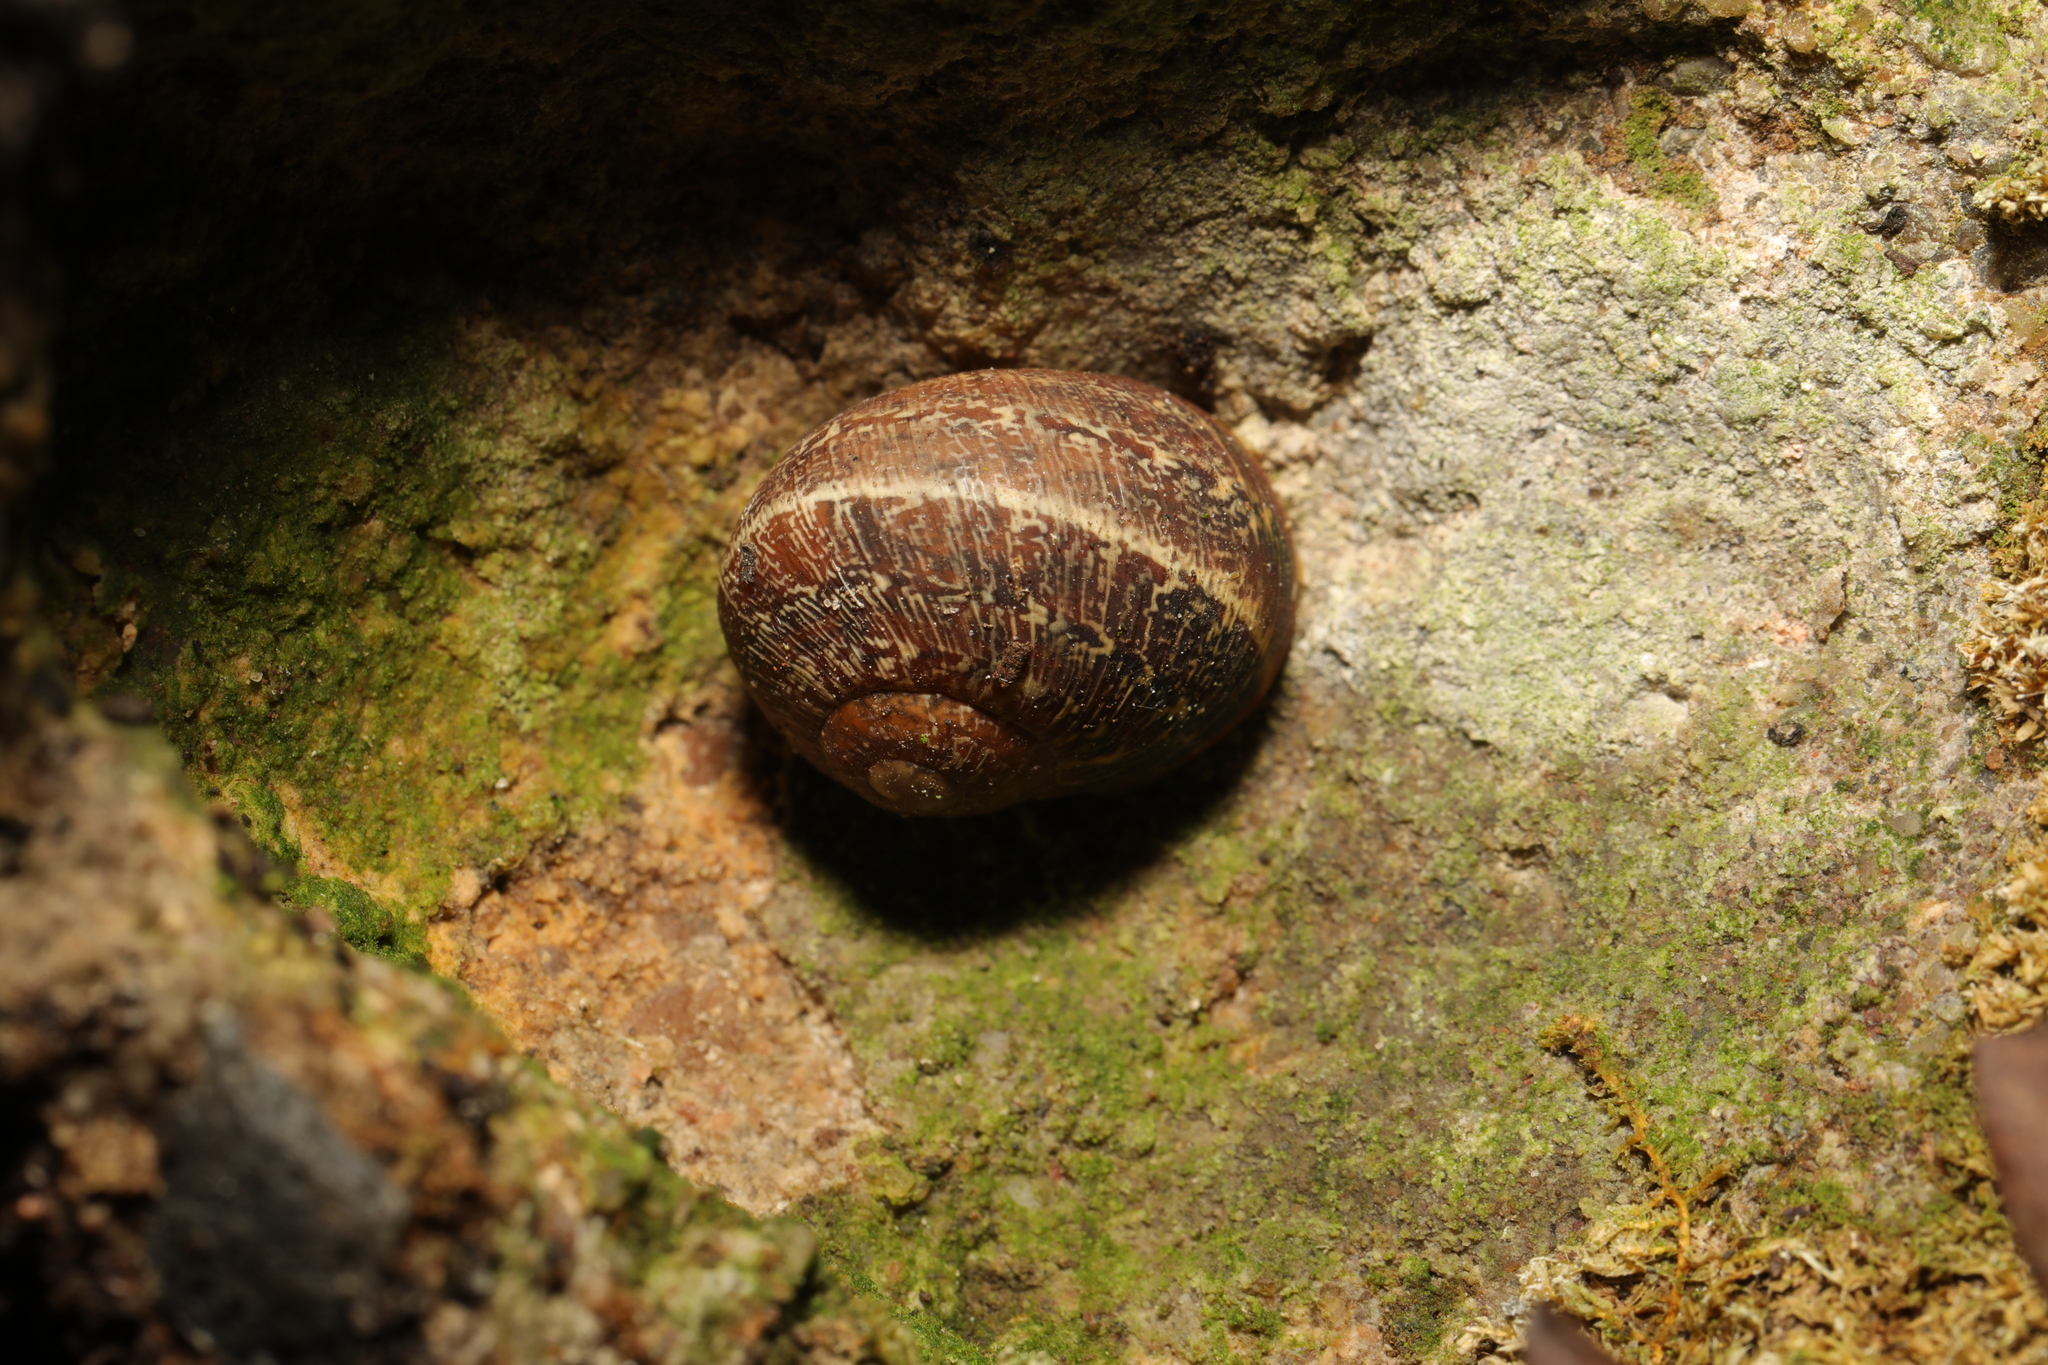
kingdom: Animalia
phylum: Mollusca
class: Gastropoda
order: Stylommatophora
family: Helicidae
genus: Cornu
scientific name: Cornu aspersum
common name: Brown garden snail
